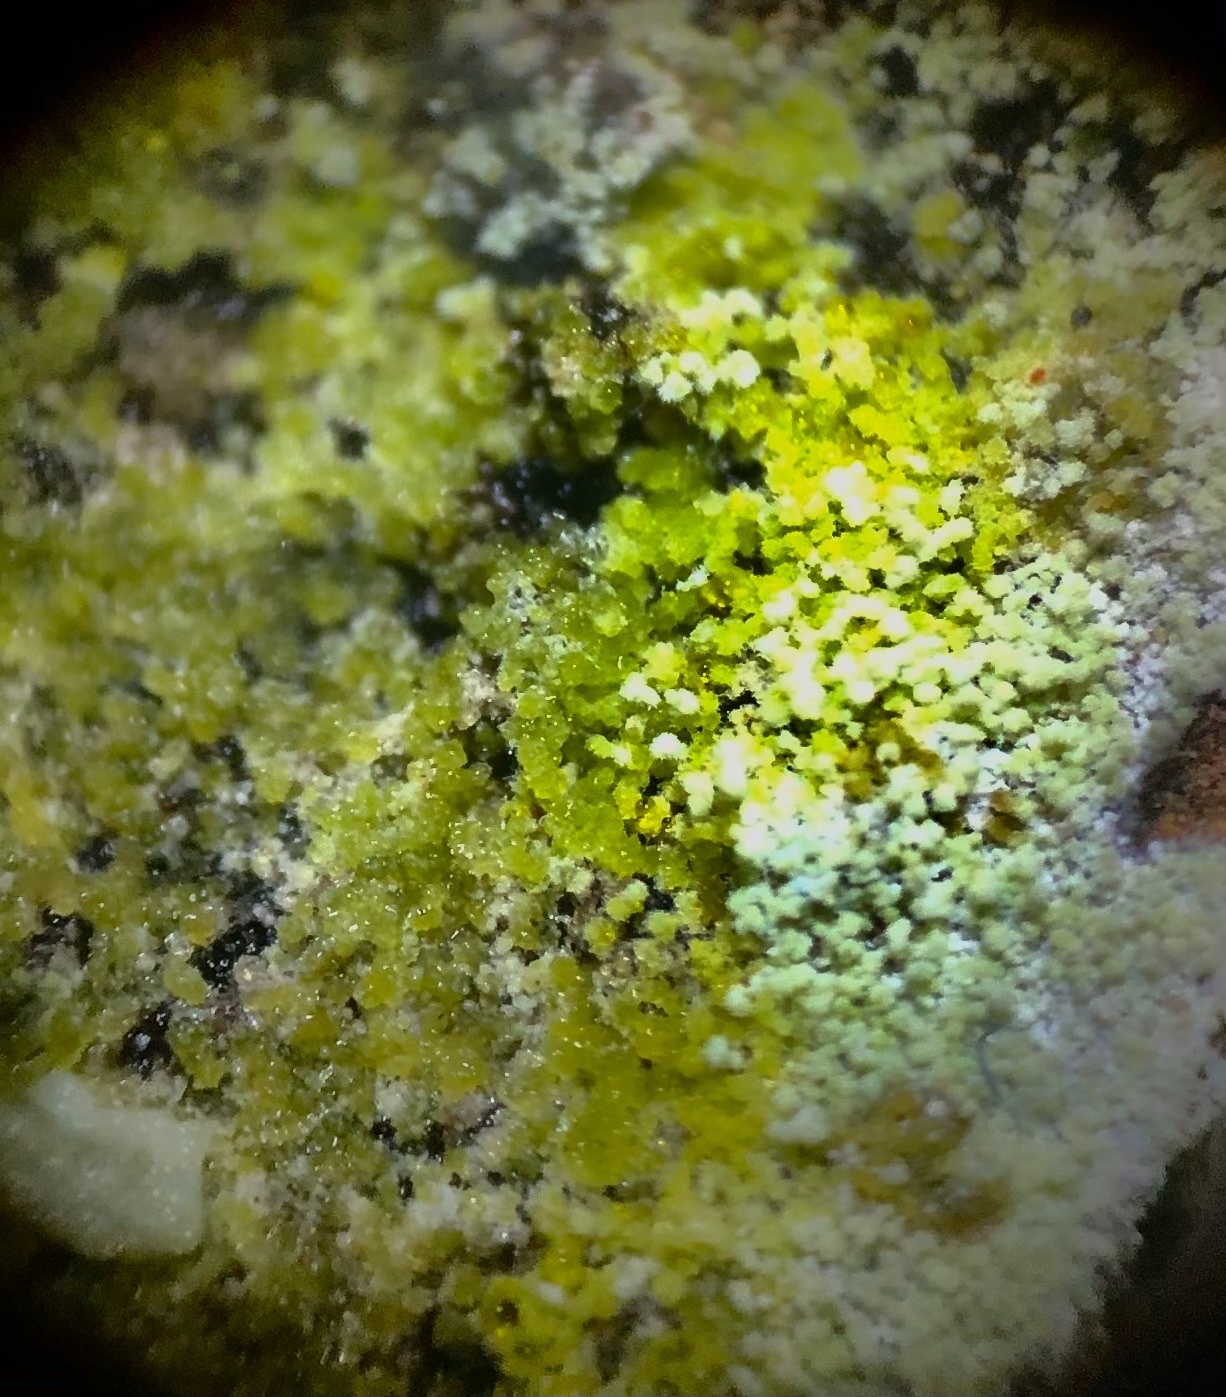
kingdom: Fungi
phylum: Ascomycota
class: Lecanoromycetes
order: Lecanorales
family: Stereocaulaceae
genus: Lepraria
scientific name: Lepraria lobificans
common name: Fluffy dust lichen
